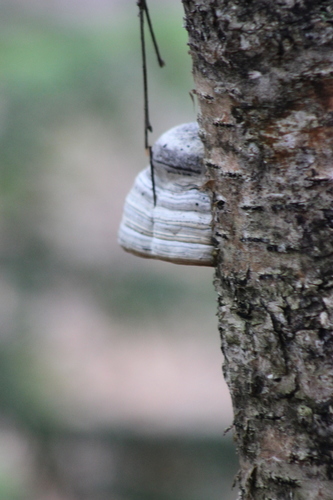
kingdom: Fungi
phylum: Basidiomycota
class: Agaricomycetes
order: Polyporales
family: Polyporaceae
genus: Fomes
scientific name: Fomes fomentarius
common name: Hoof fungus
